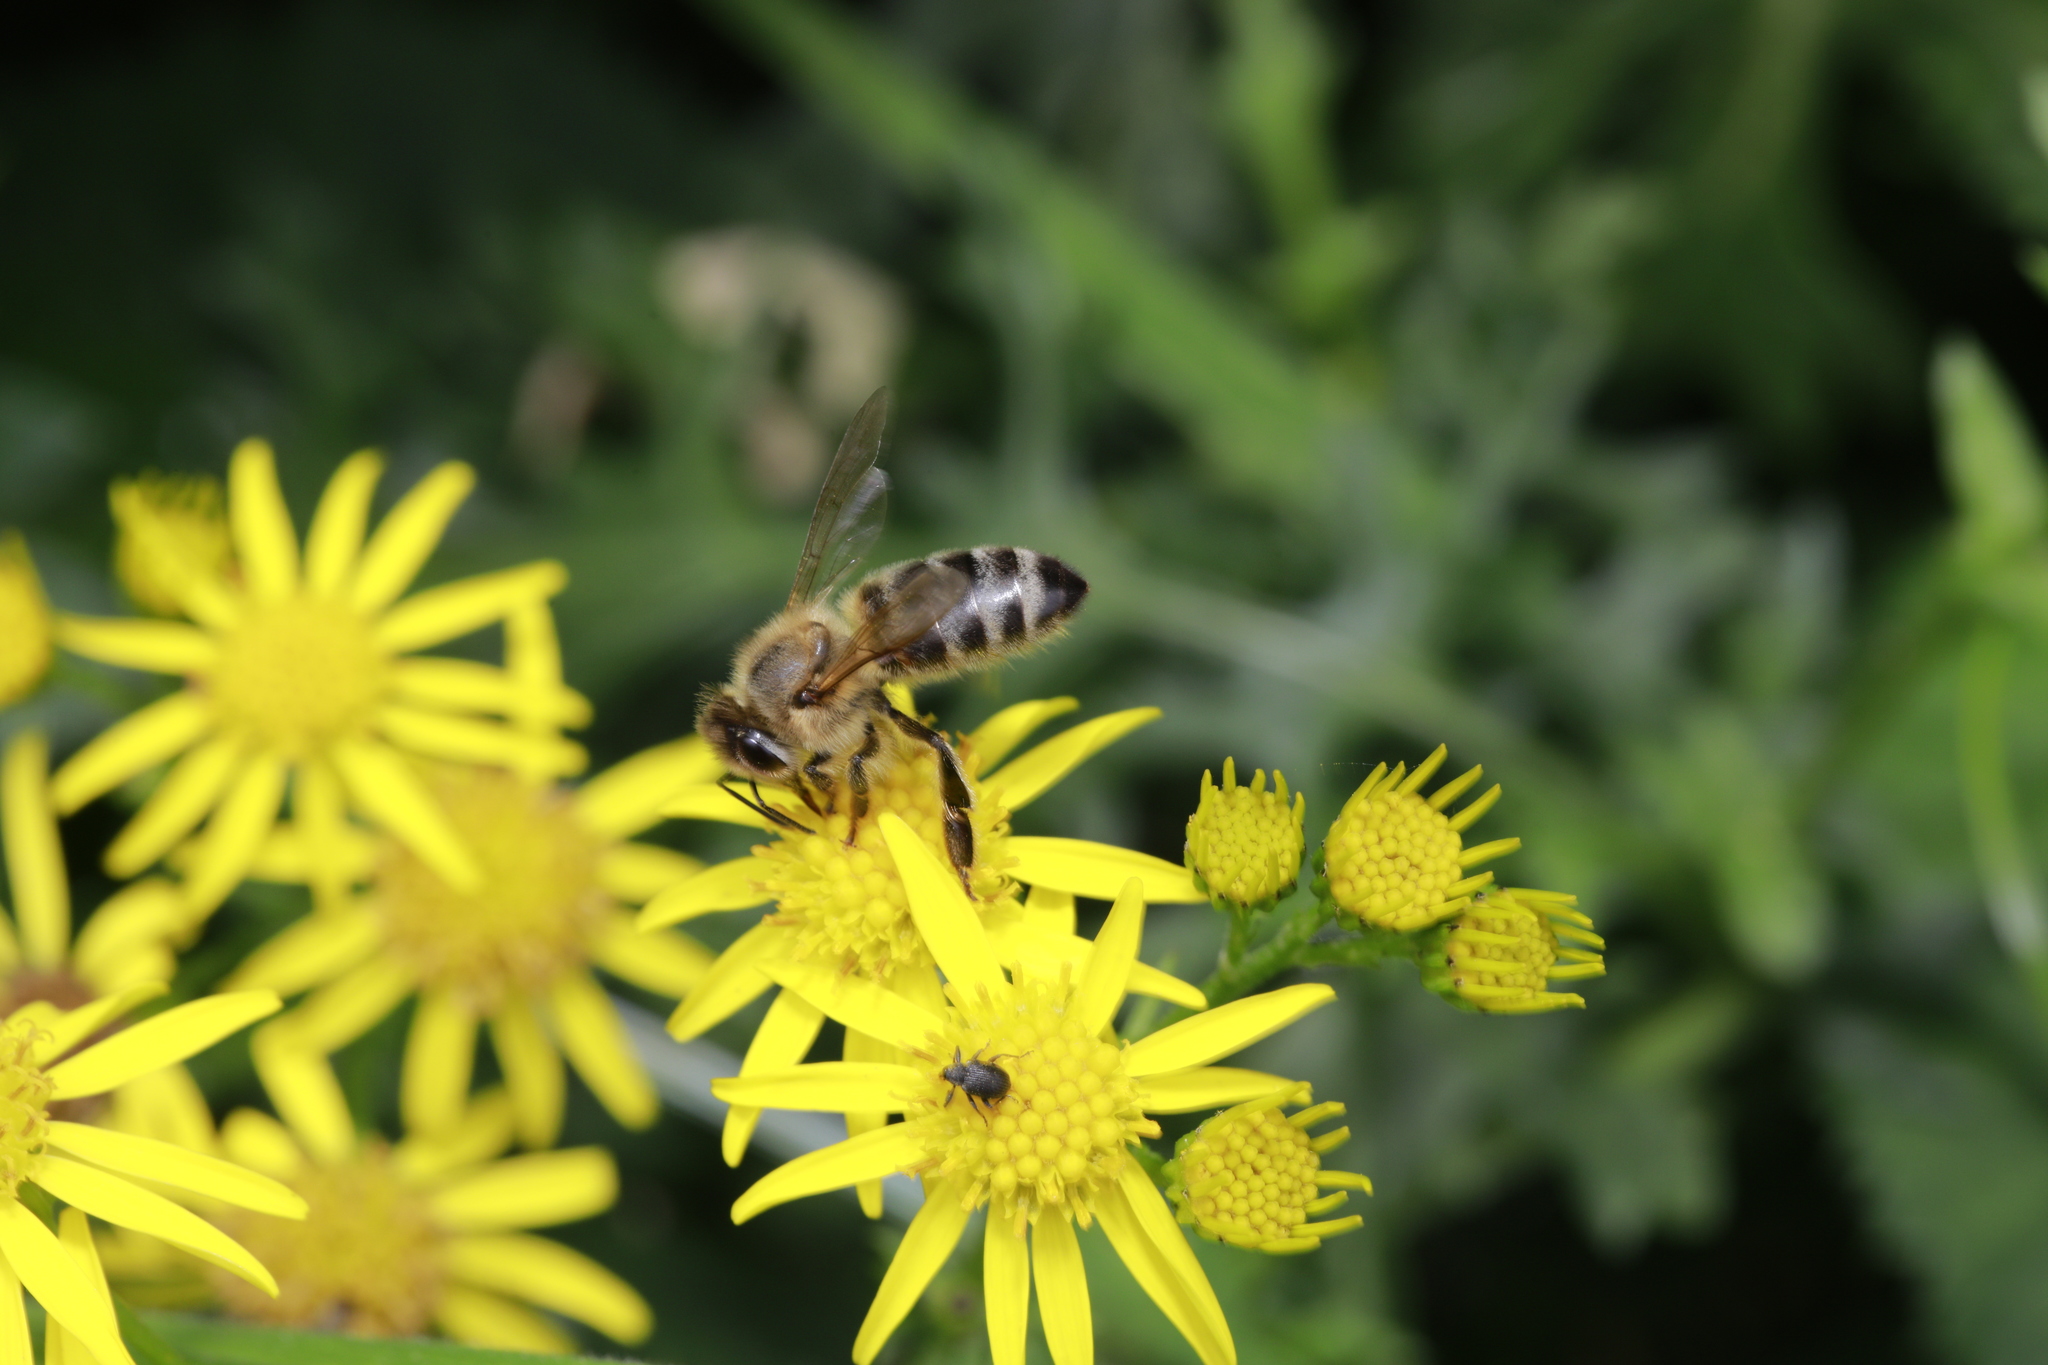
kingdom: Animalia
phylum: Arthropoda
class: Insecta
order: Hymenoptera
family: Apidae
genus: Apis
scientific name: Apis mellifera
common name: Honey bee
